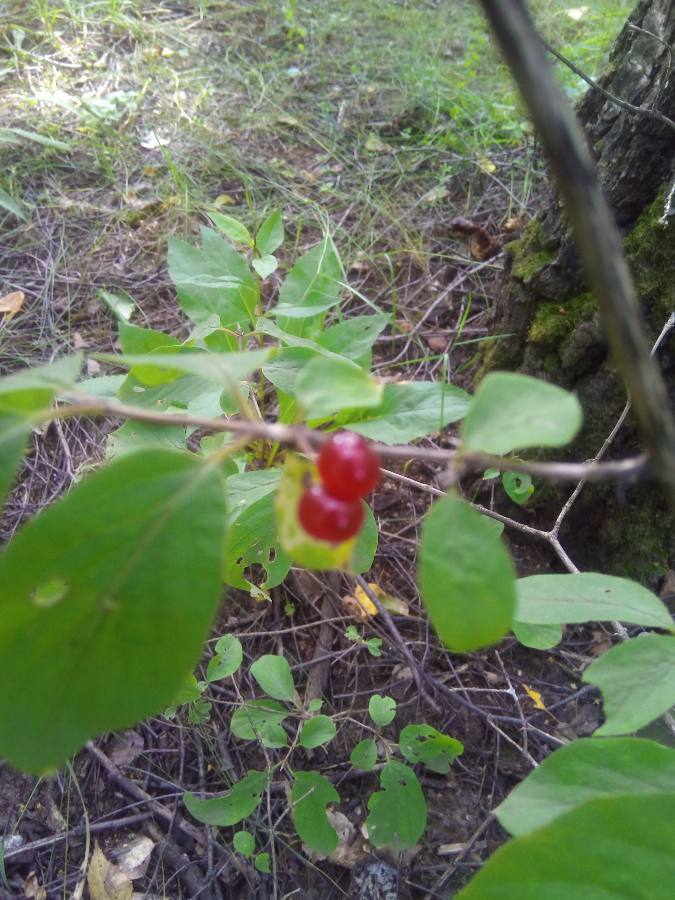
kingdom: Plantae
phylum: Tracheophyta
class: Magnoliopsida
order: Dipsacales
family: Caprifoliaceae
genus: Lonicera
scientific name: Lonicera xylosteum
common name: Fly honeysuckle
